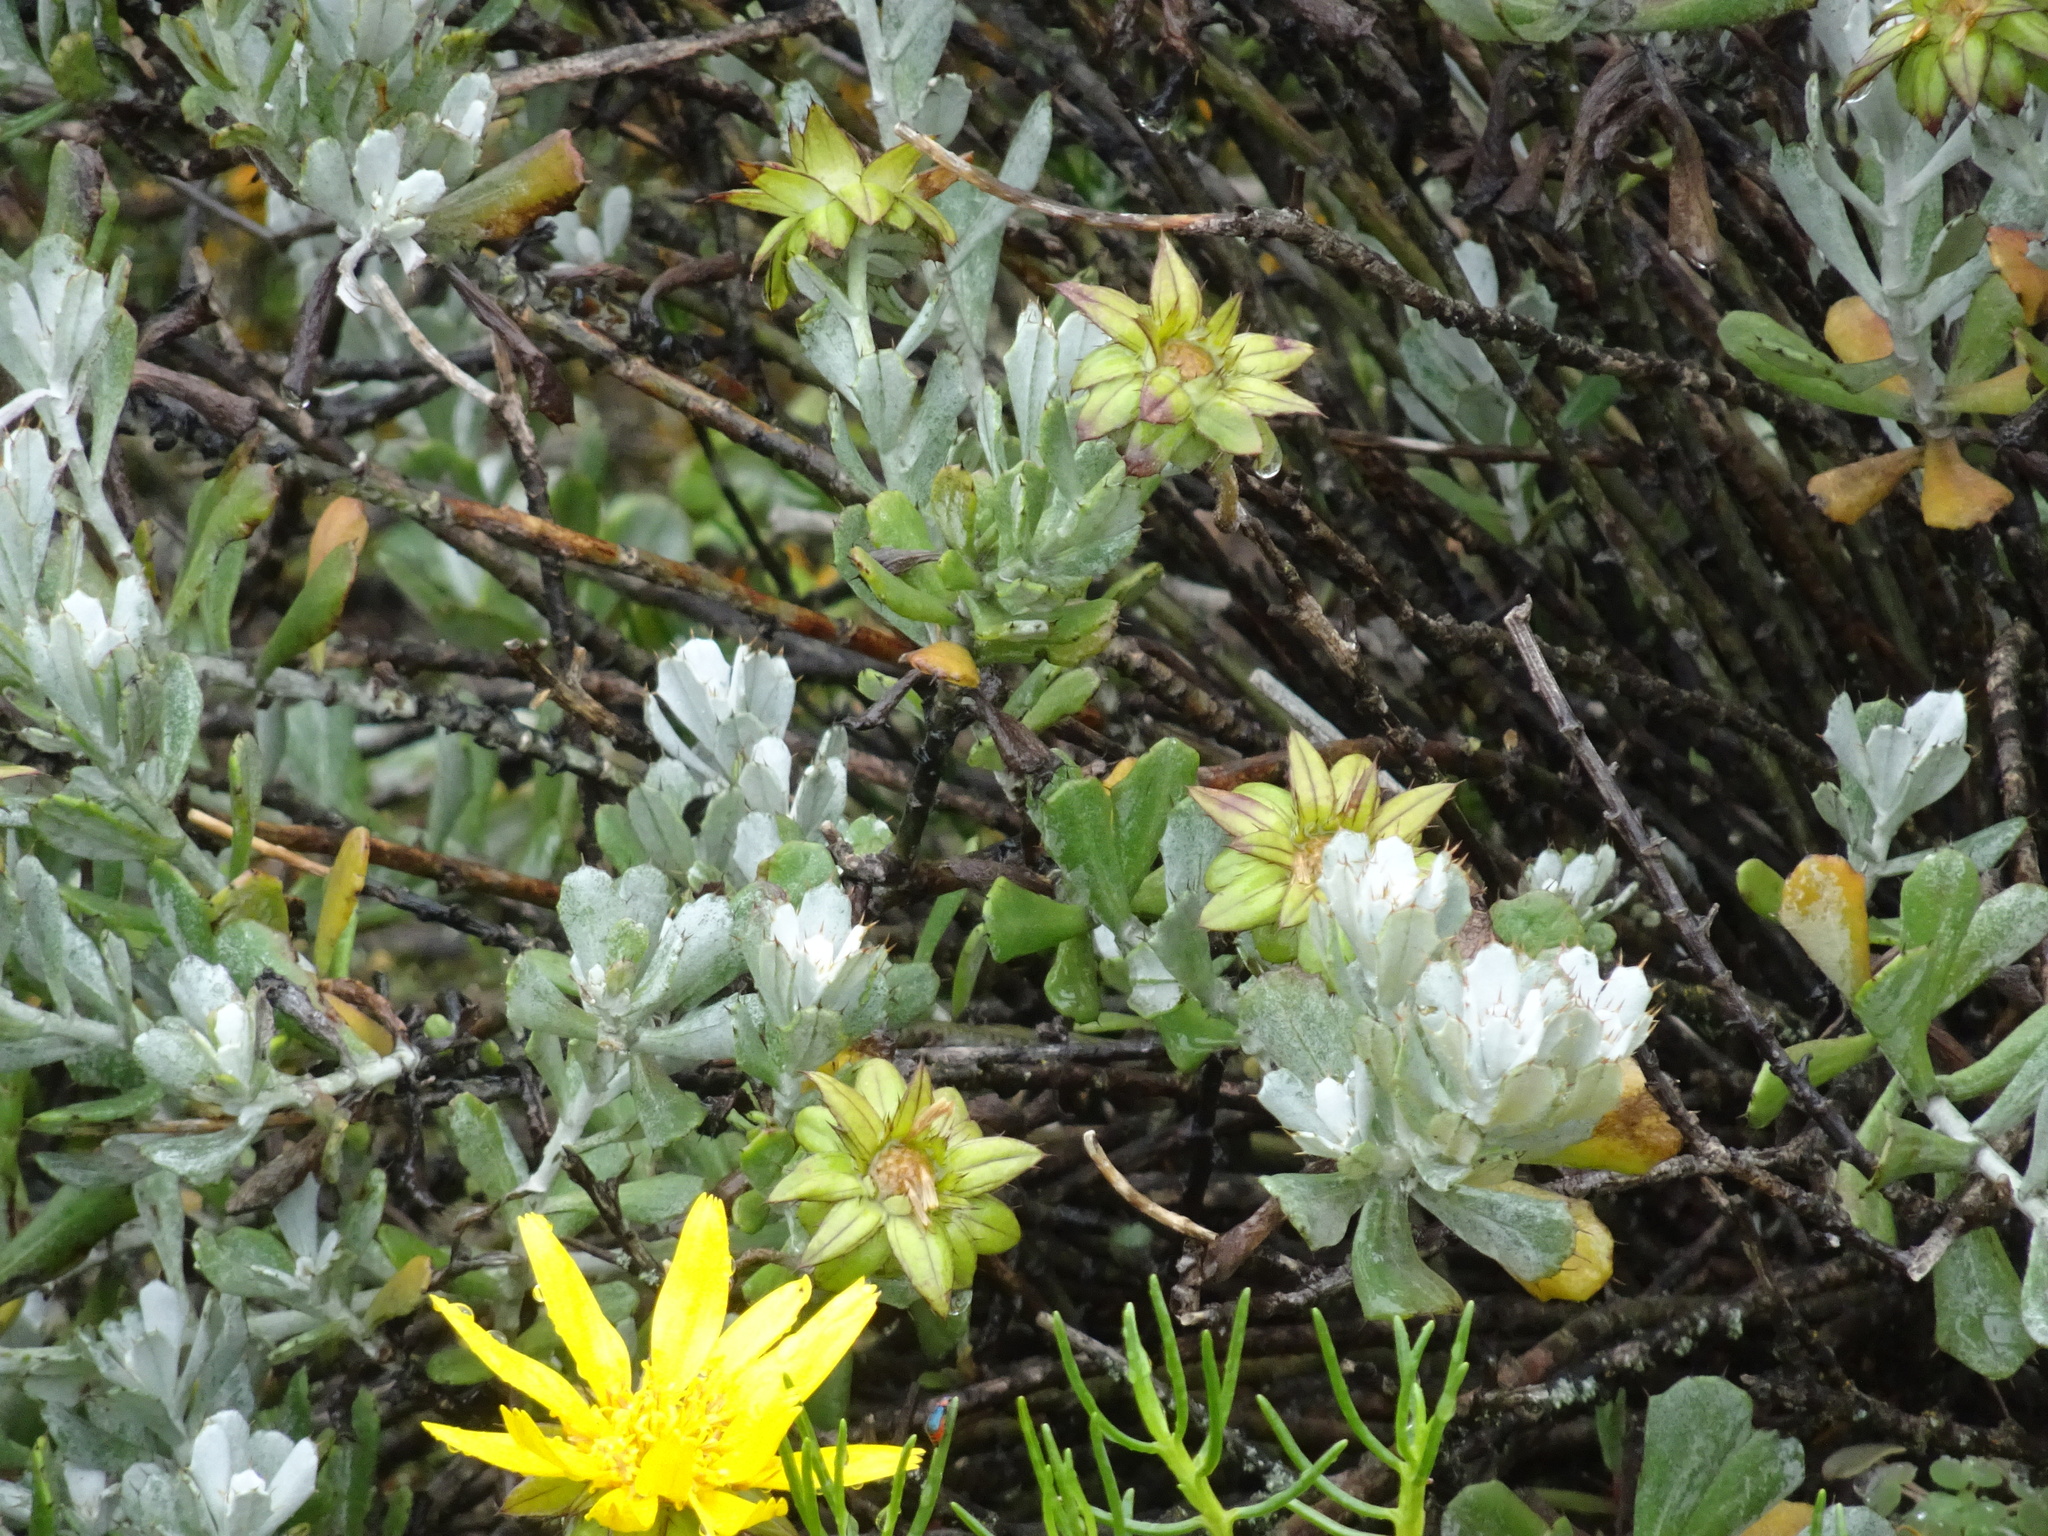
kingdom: Plantae
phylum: Tracheophyta
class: Magnoliopsida
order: Asterales
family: Asteraceae
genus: Berkheya
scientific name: Berkheya cuneata
